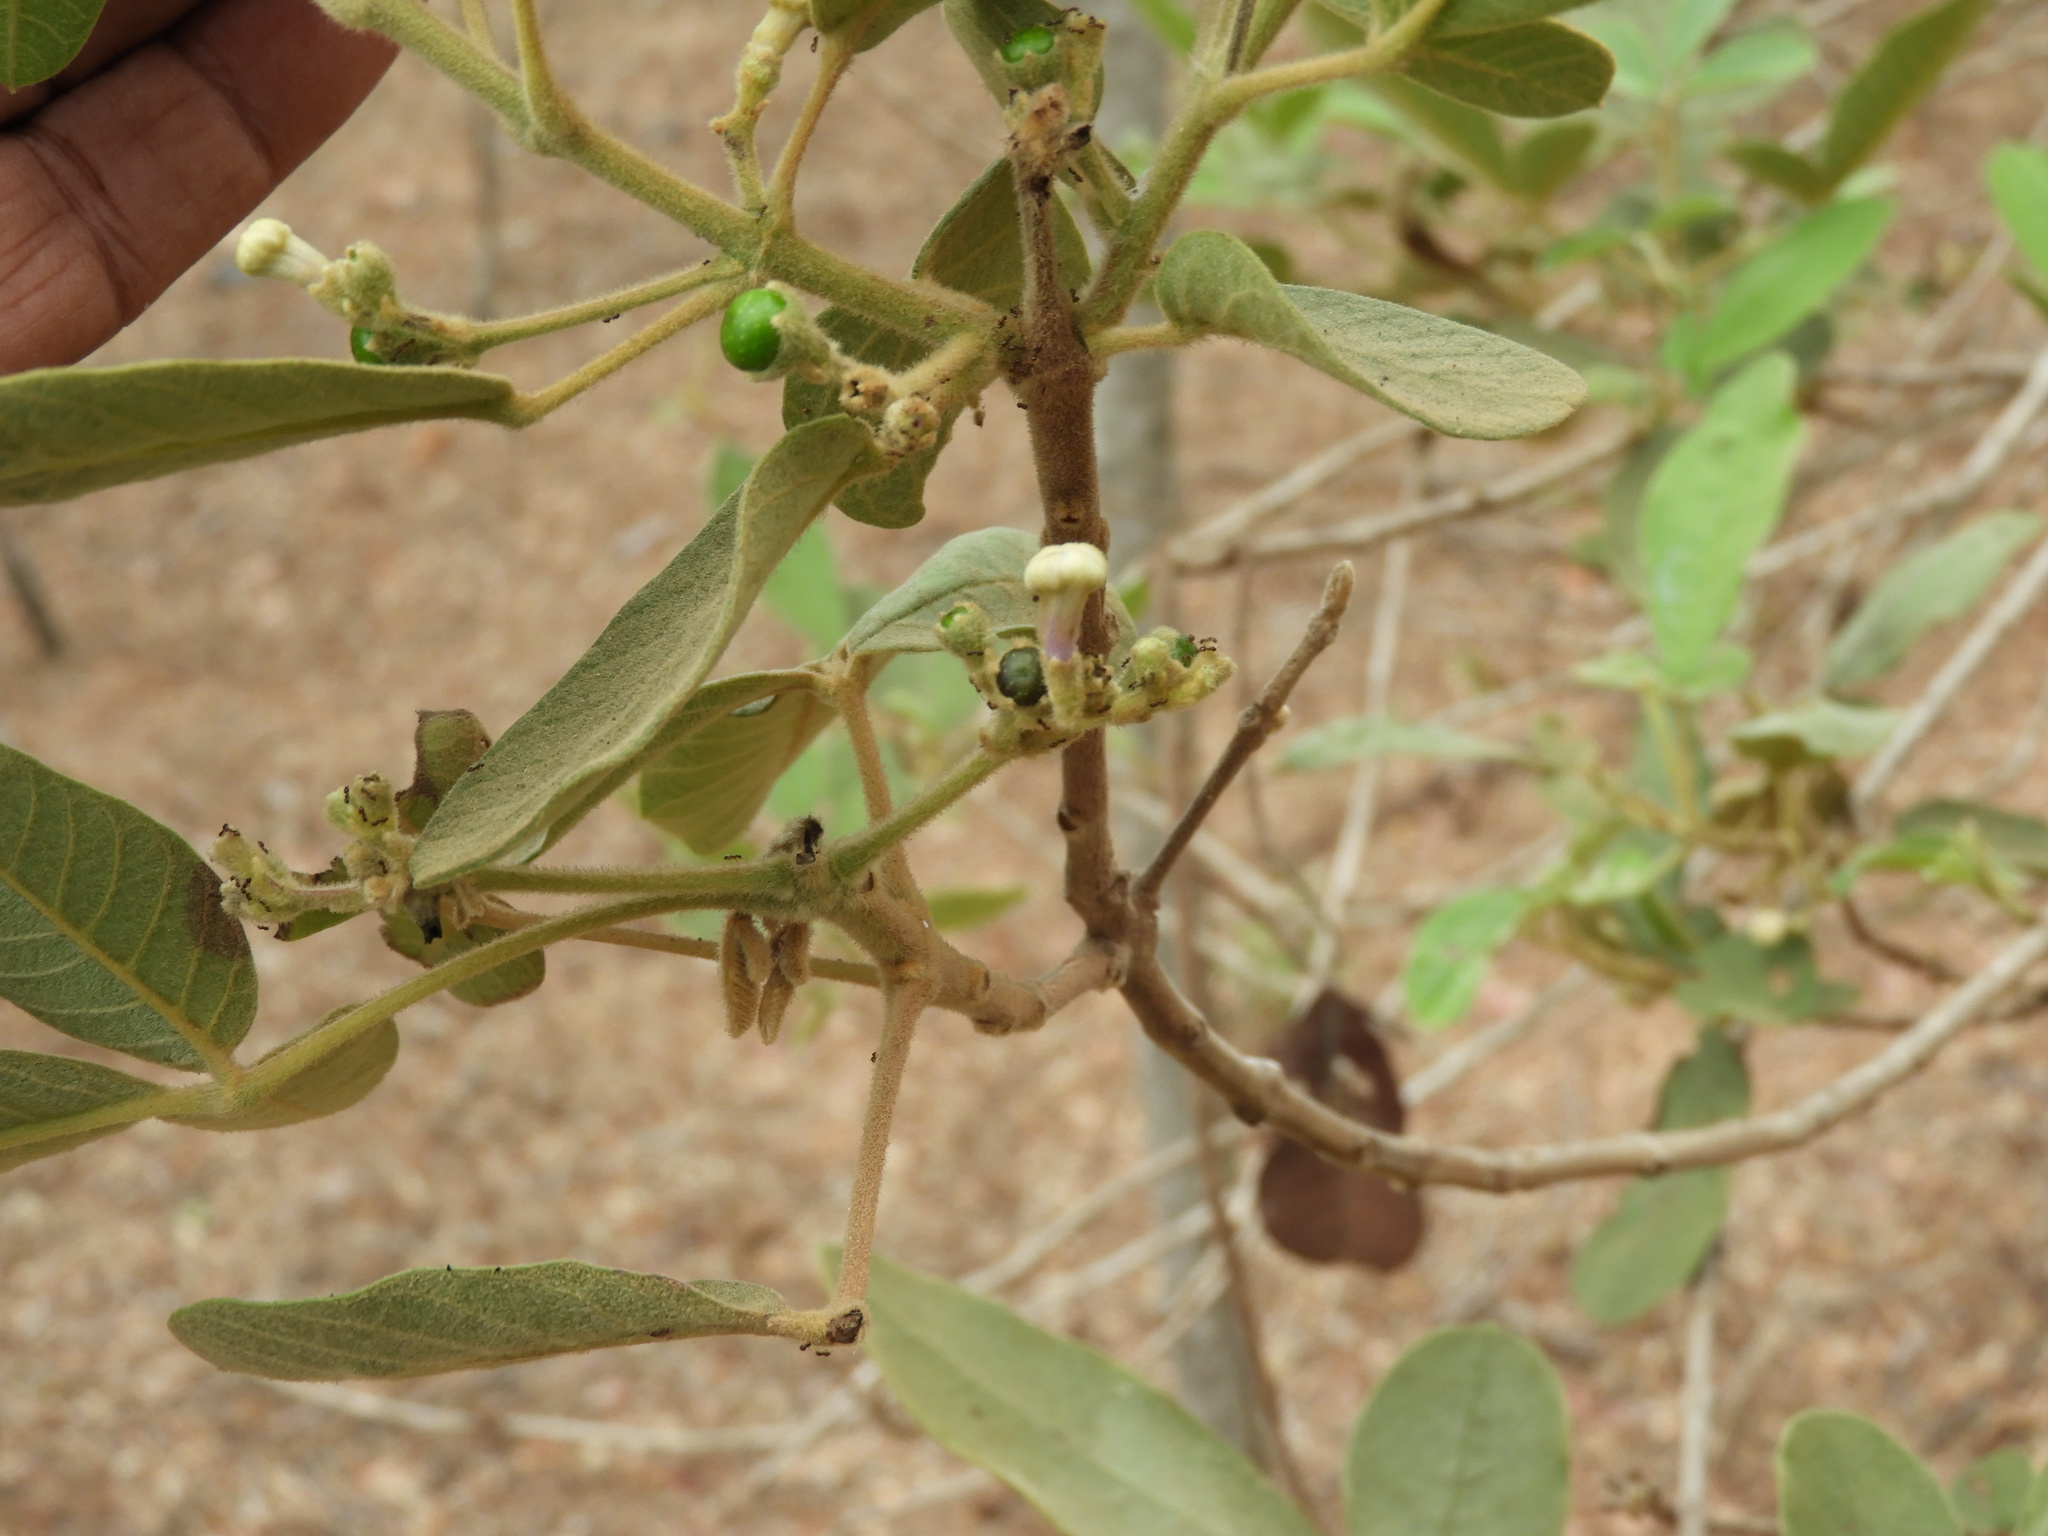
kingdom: Plantae
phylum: Tracheophyta
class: Magnoliopsida
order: Lamiales
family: Lamiaceae
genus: Vitex
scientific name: Vitex mollis
